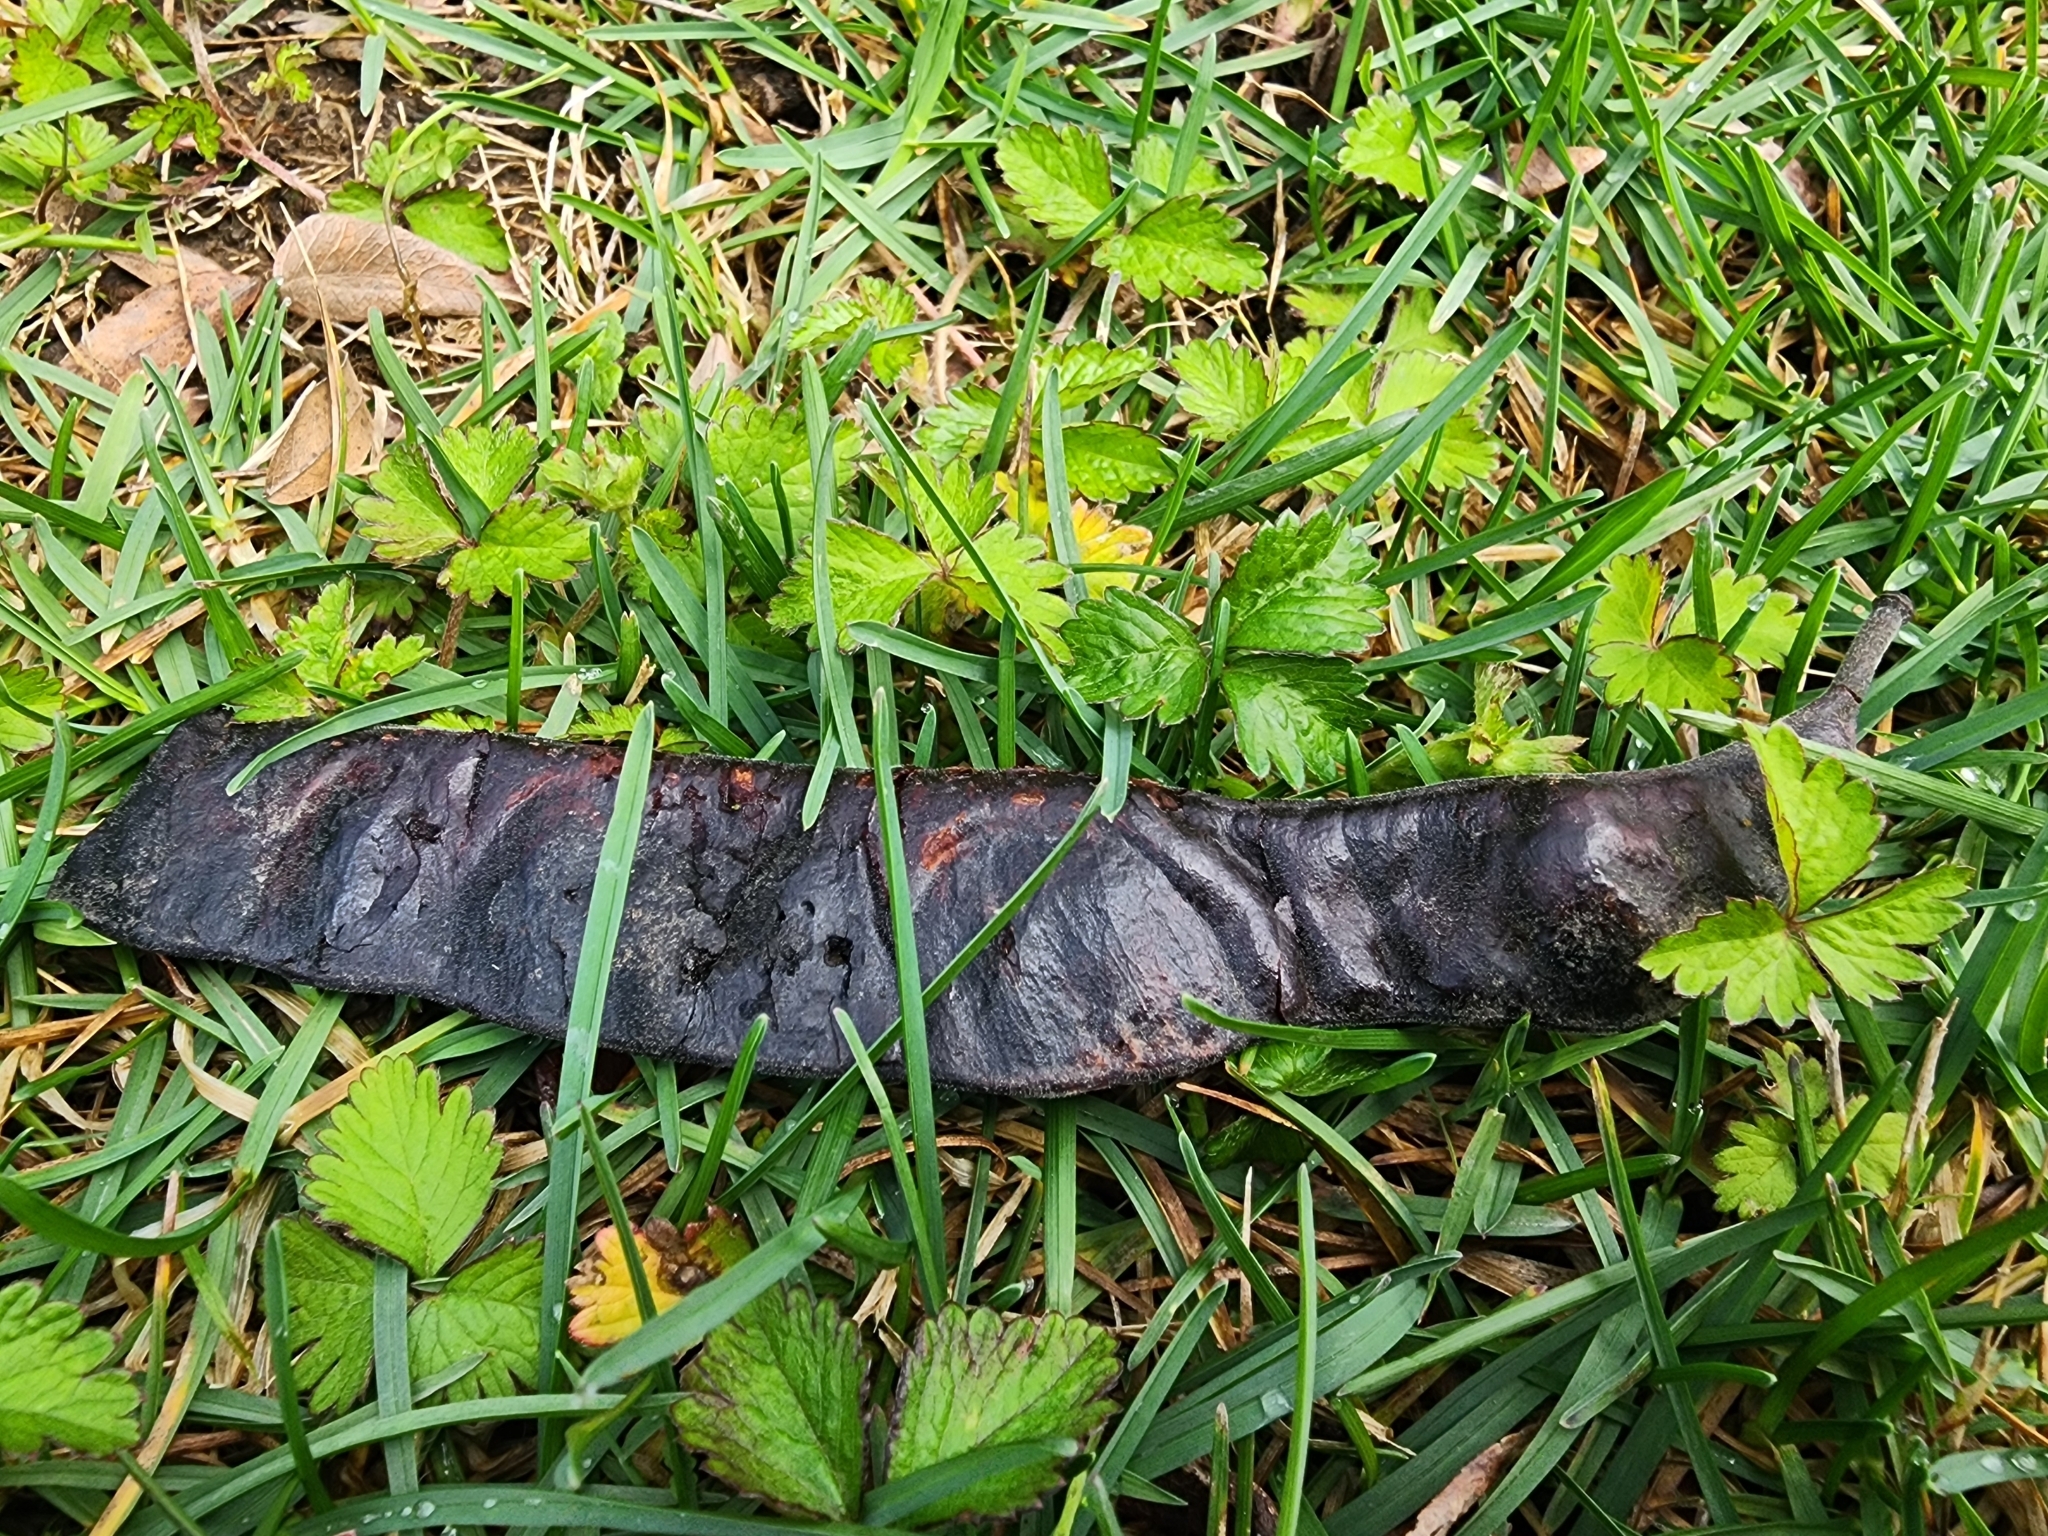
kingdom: Plantae
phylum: Tracheophyta
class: Magnoliopsida
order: Fabales
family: Fabaceae
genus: Gleditsia
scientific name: Gleditsia triacanthos
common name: Common honeylocust
